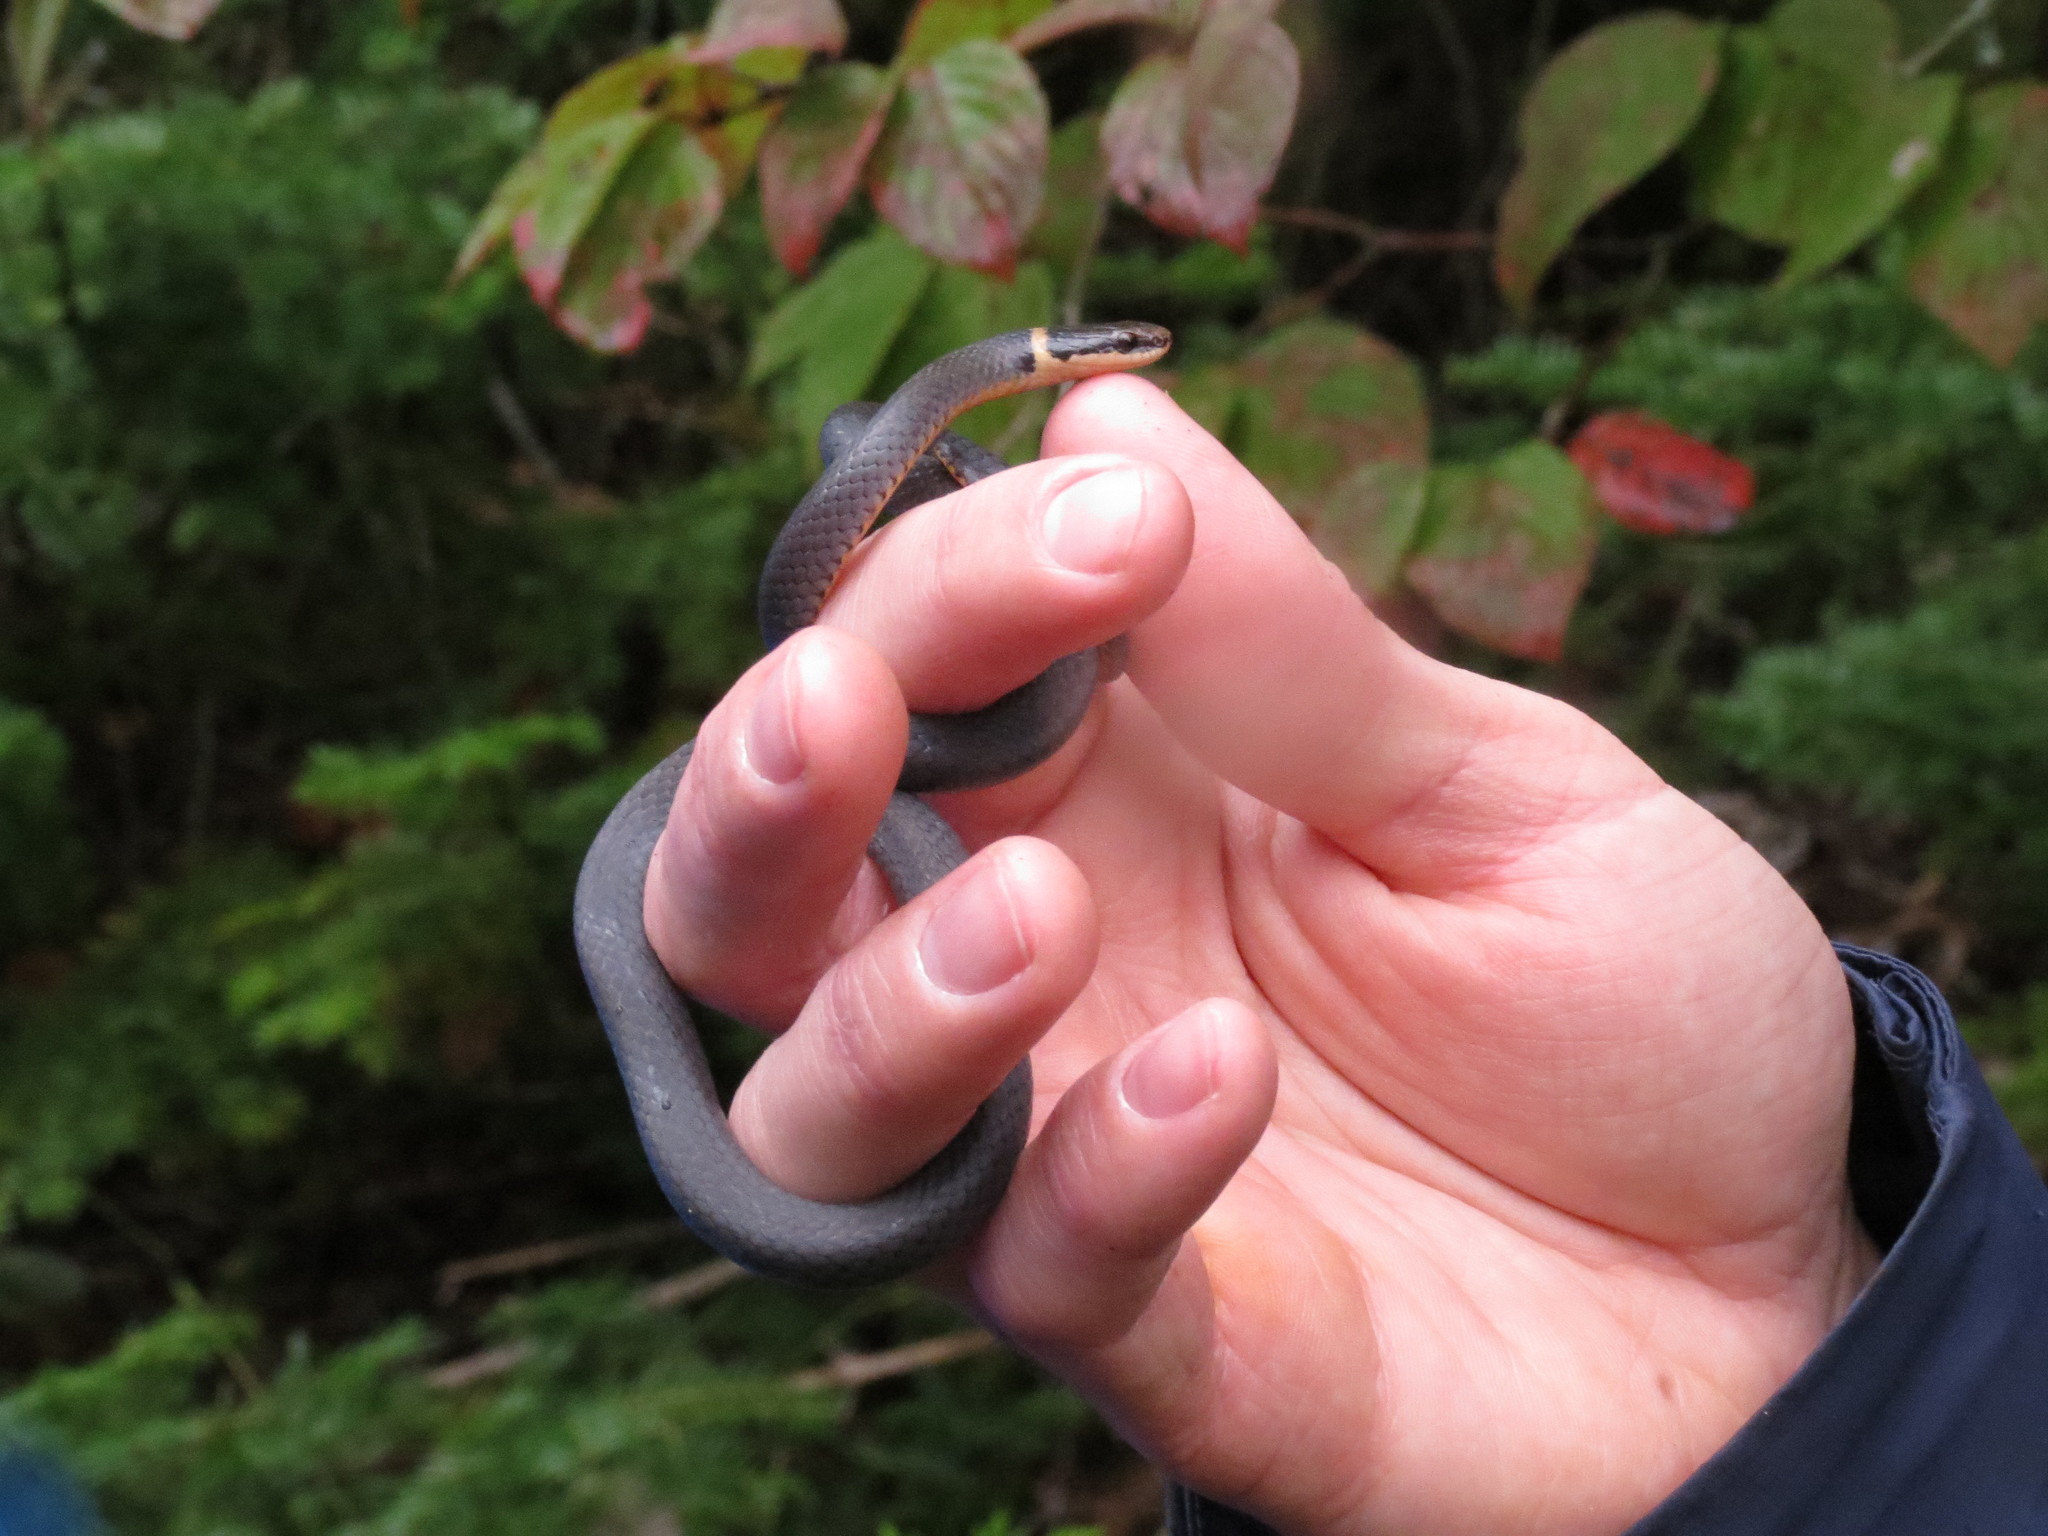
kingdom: Animalia
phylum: Chordata
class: Squamata
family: Colubridae
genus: Diadophis
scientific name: Diadophis punctatus
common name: Ringneck snake
